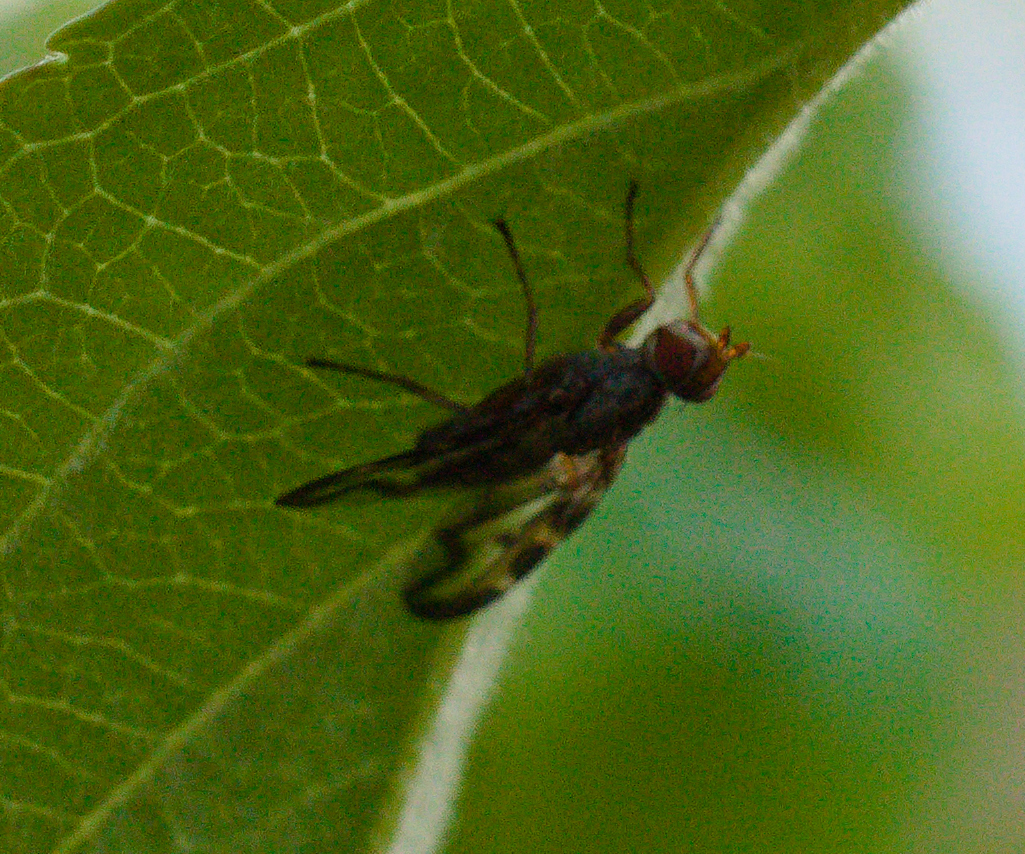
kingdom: Animalia
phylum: Arthropoda
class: Insecta
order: Diptera
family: Ulidiidae
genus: Otites
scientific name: Otites lamed
